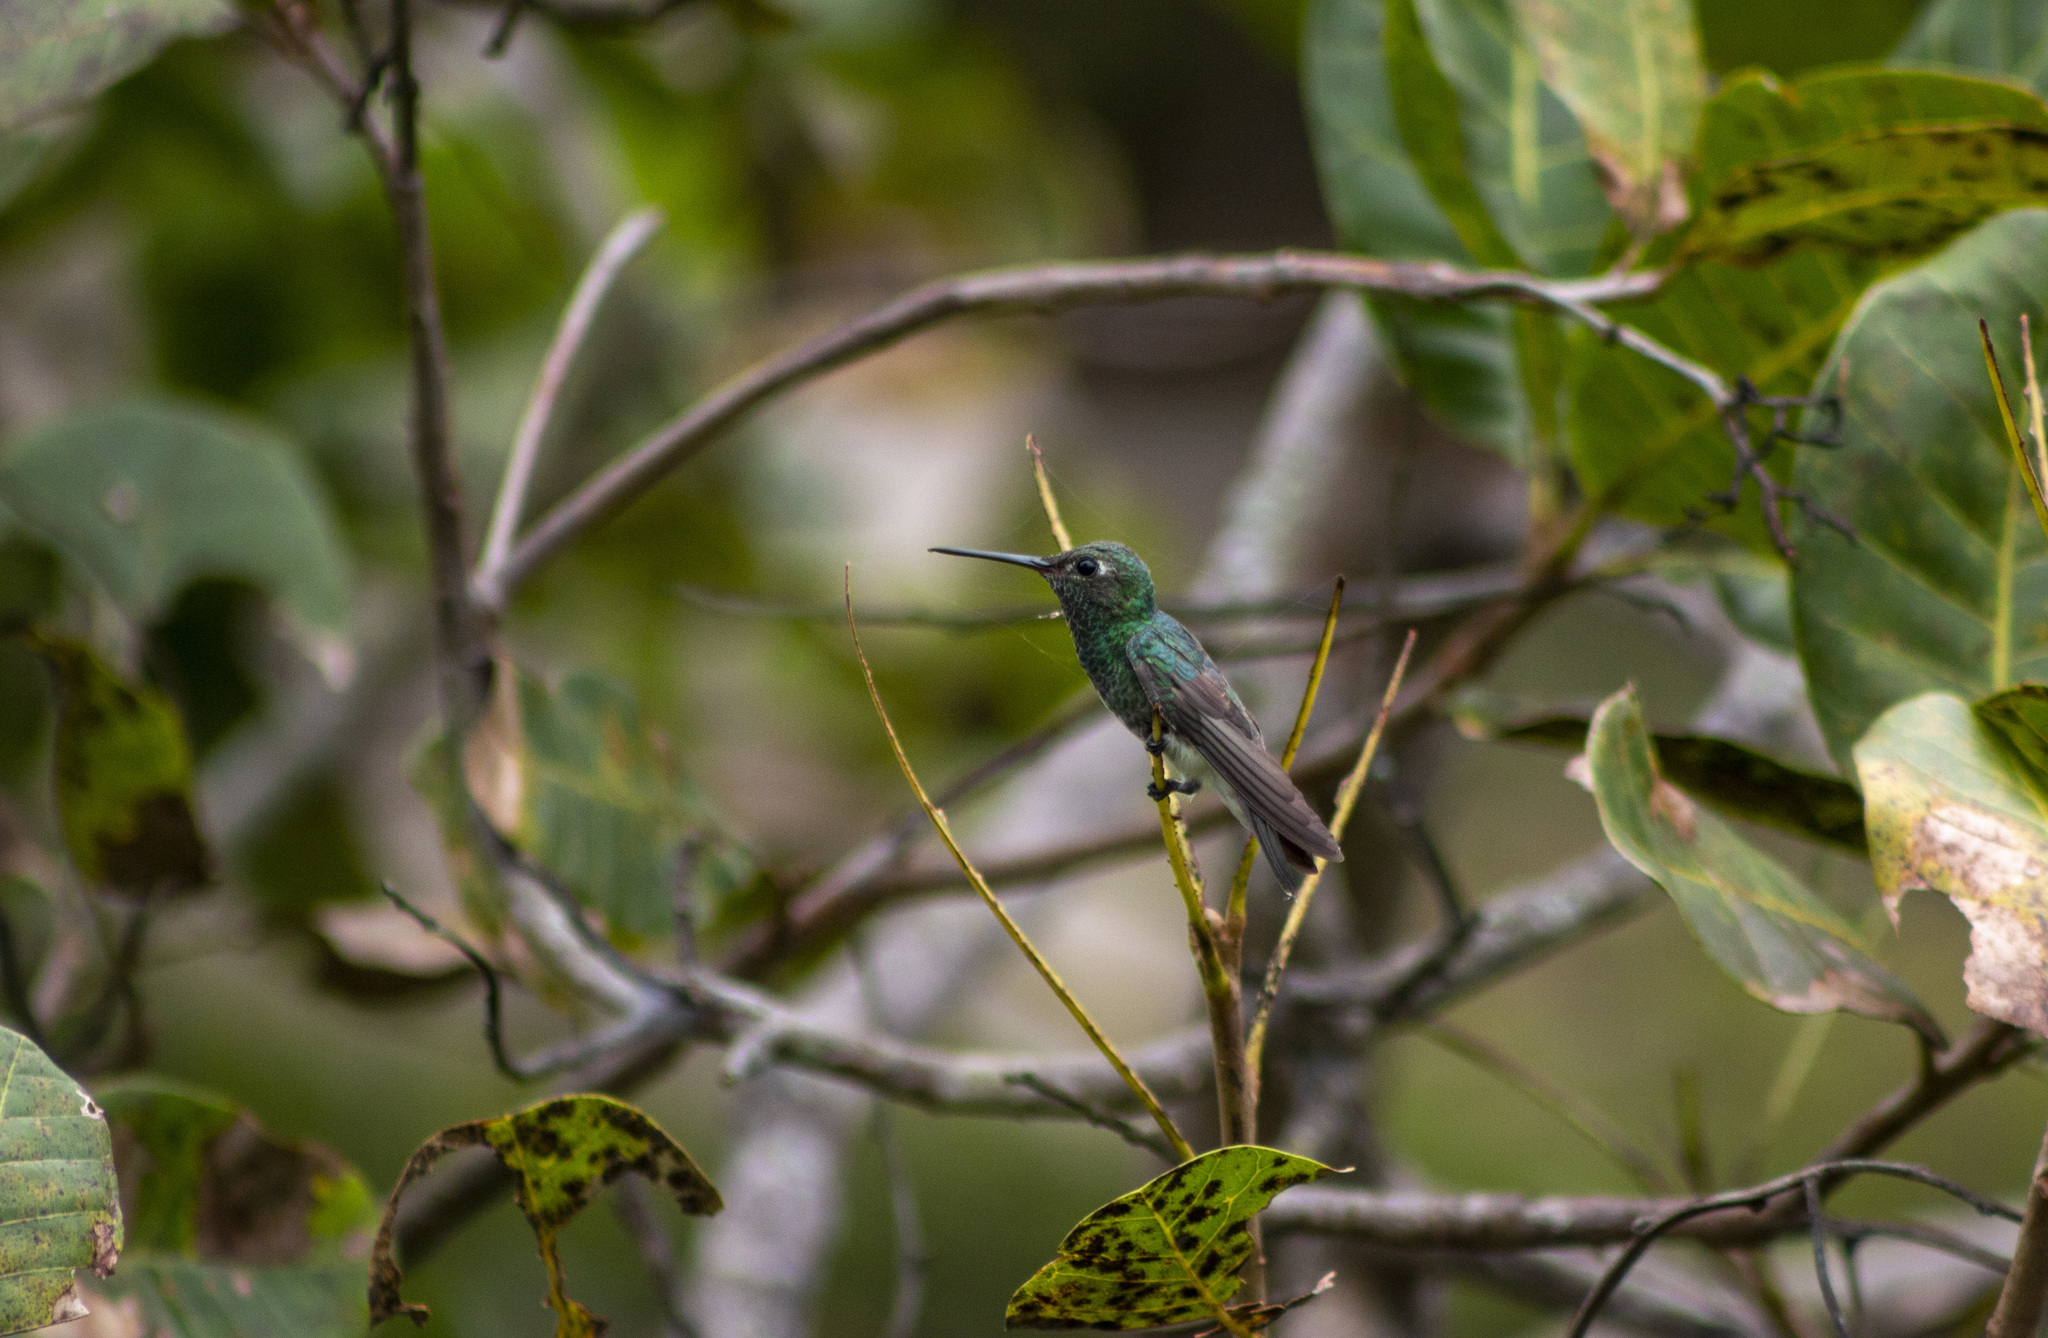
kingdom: Animalia
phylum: Chordata
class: Aves
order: Apodiformes
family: Trochilidae
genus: Chionomesa
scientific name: Chionomesa fimbriata
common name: Glittering-throated emerald
